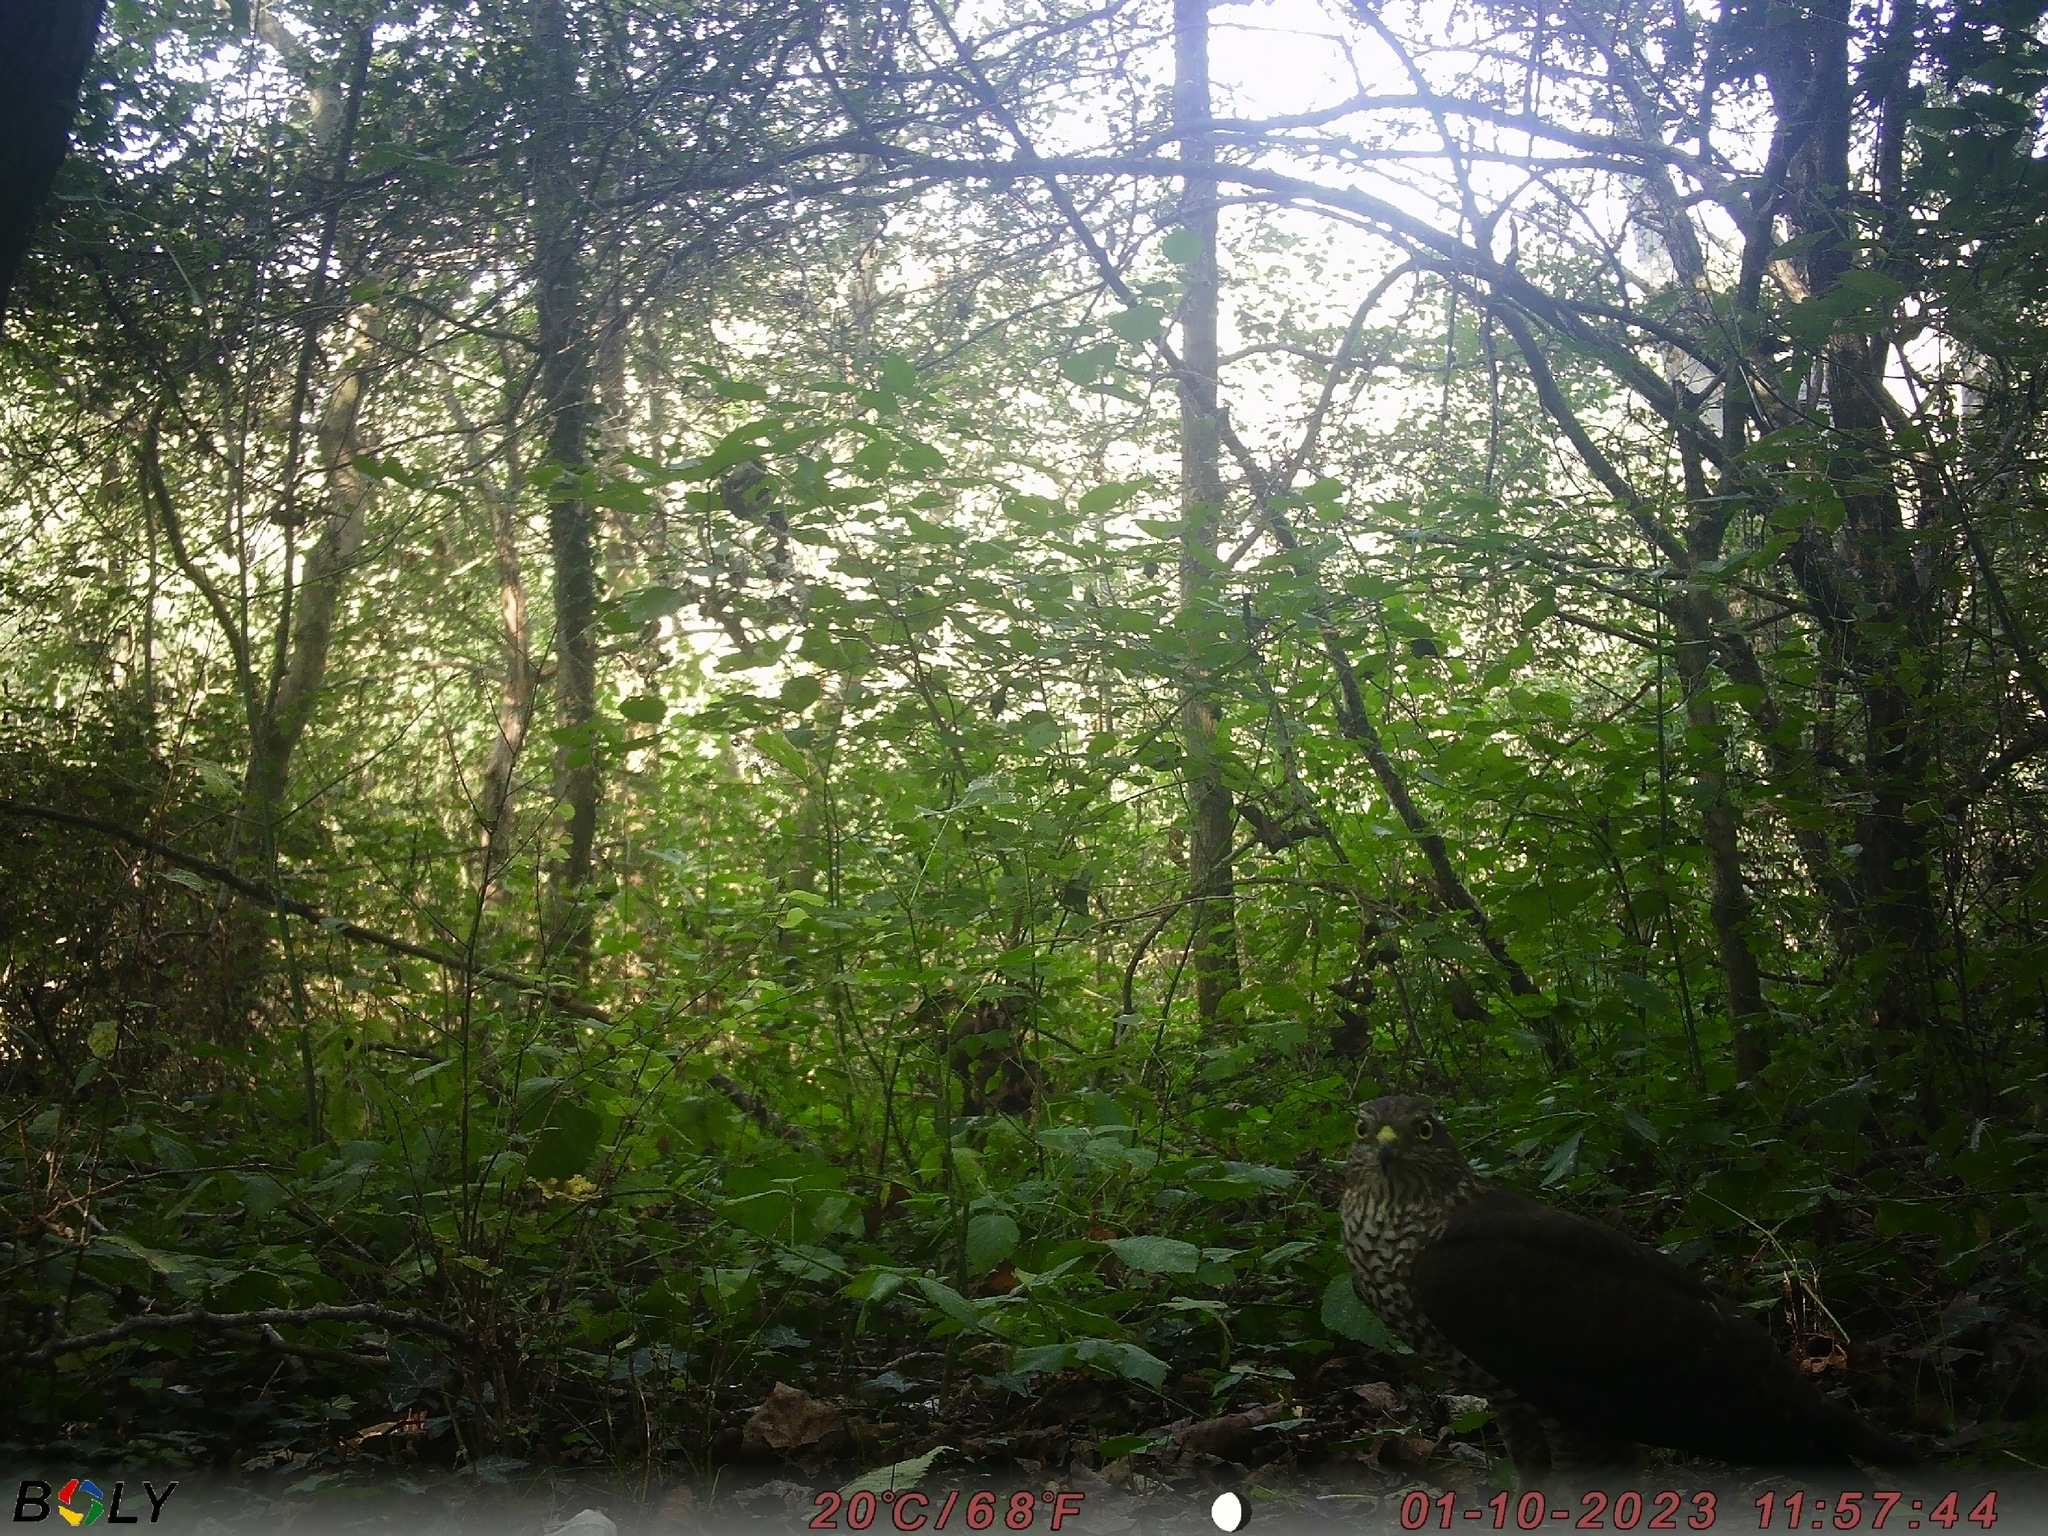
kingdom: Animalia
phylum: Chordata
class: Aves
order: Accipitriformes
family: Accipitridae
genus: Accipiter
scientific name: Accipiter nisus
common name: Eurasian sparrowhawk
